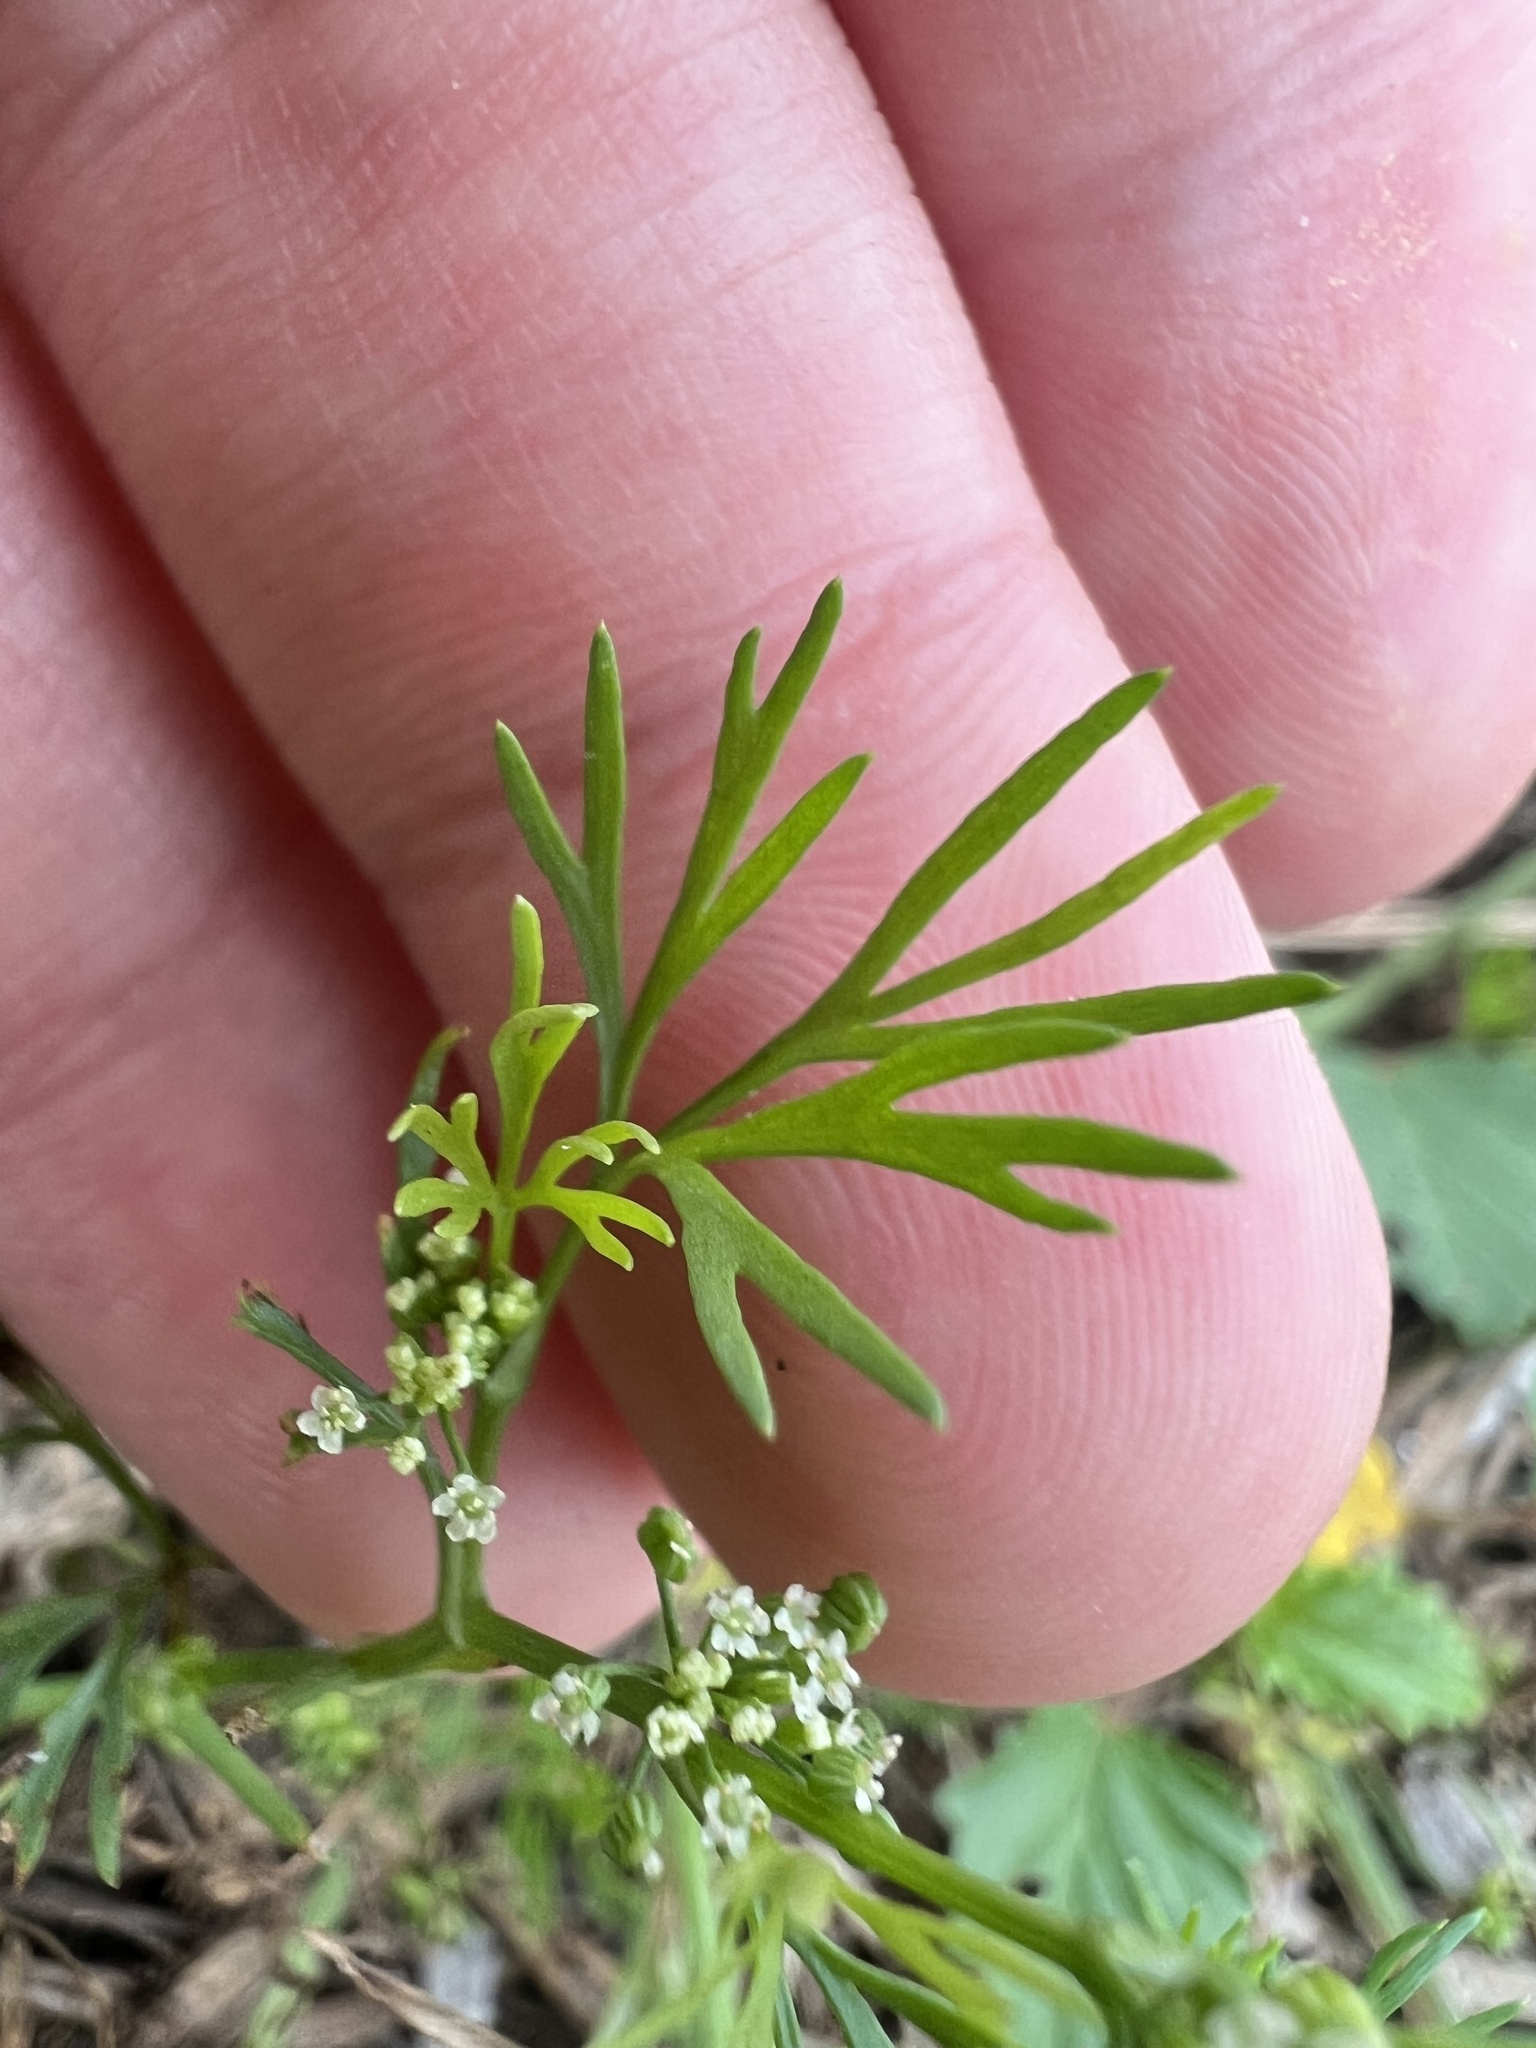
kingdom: Plantae
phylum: Tracheophyta
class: Magnoliopsida
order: Apiales
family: Apiaceae
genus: Ammoselinum
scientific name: Ammoselinum butleri
